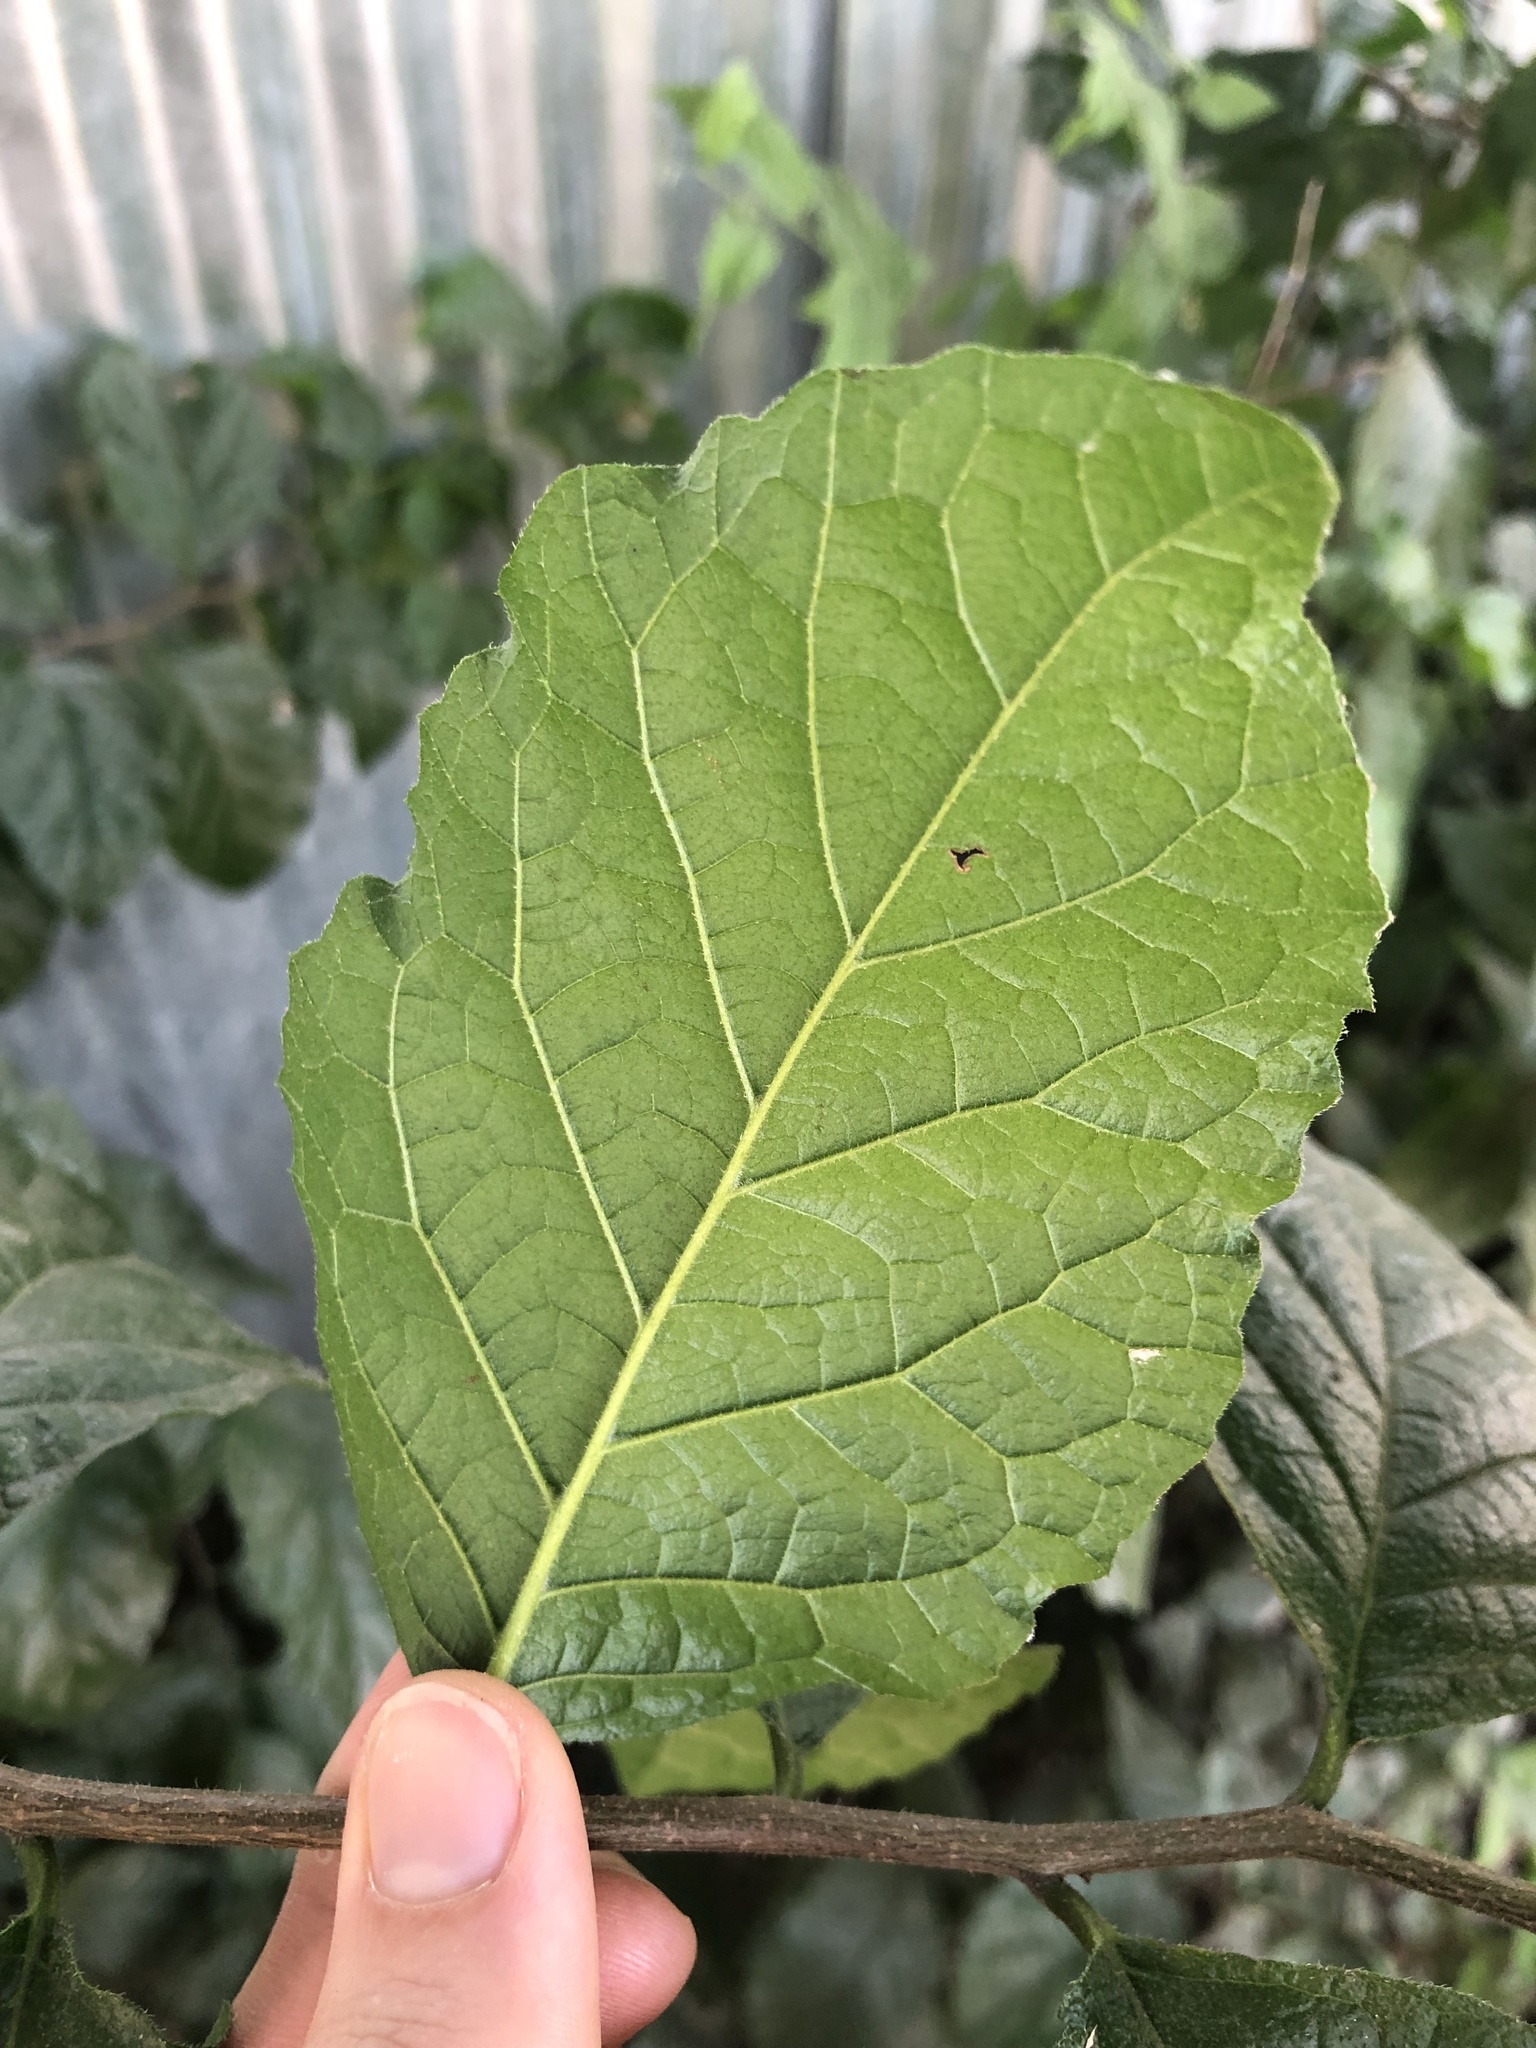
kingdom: Plantae
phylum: Tracheophyta
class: Magnoliopsida
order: Boraginales
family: Ehretiaceae
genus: Ehretia
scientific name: Ehretia anacua
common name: Sugarberry
